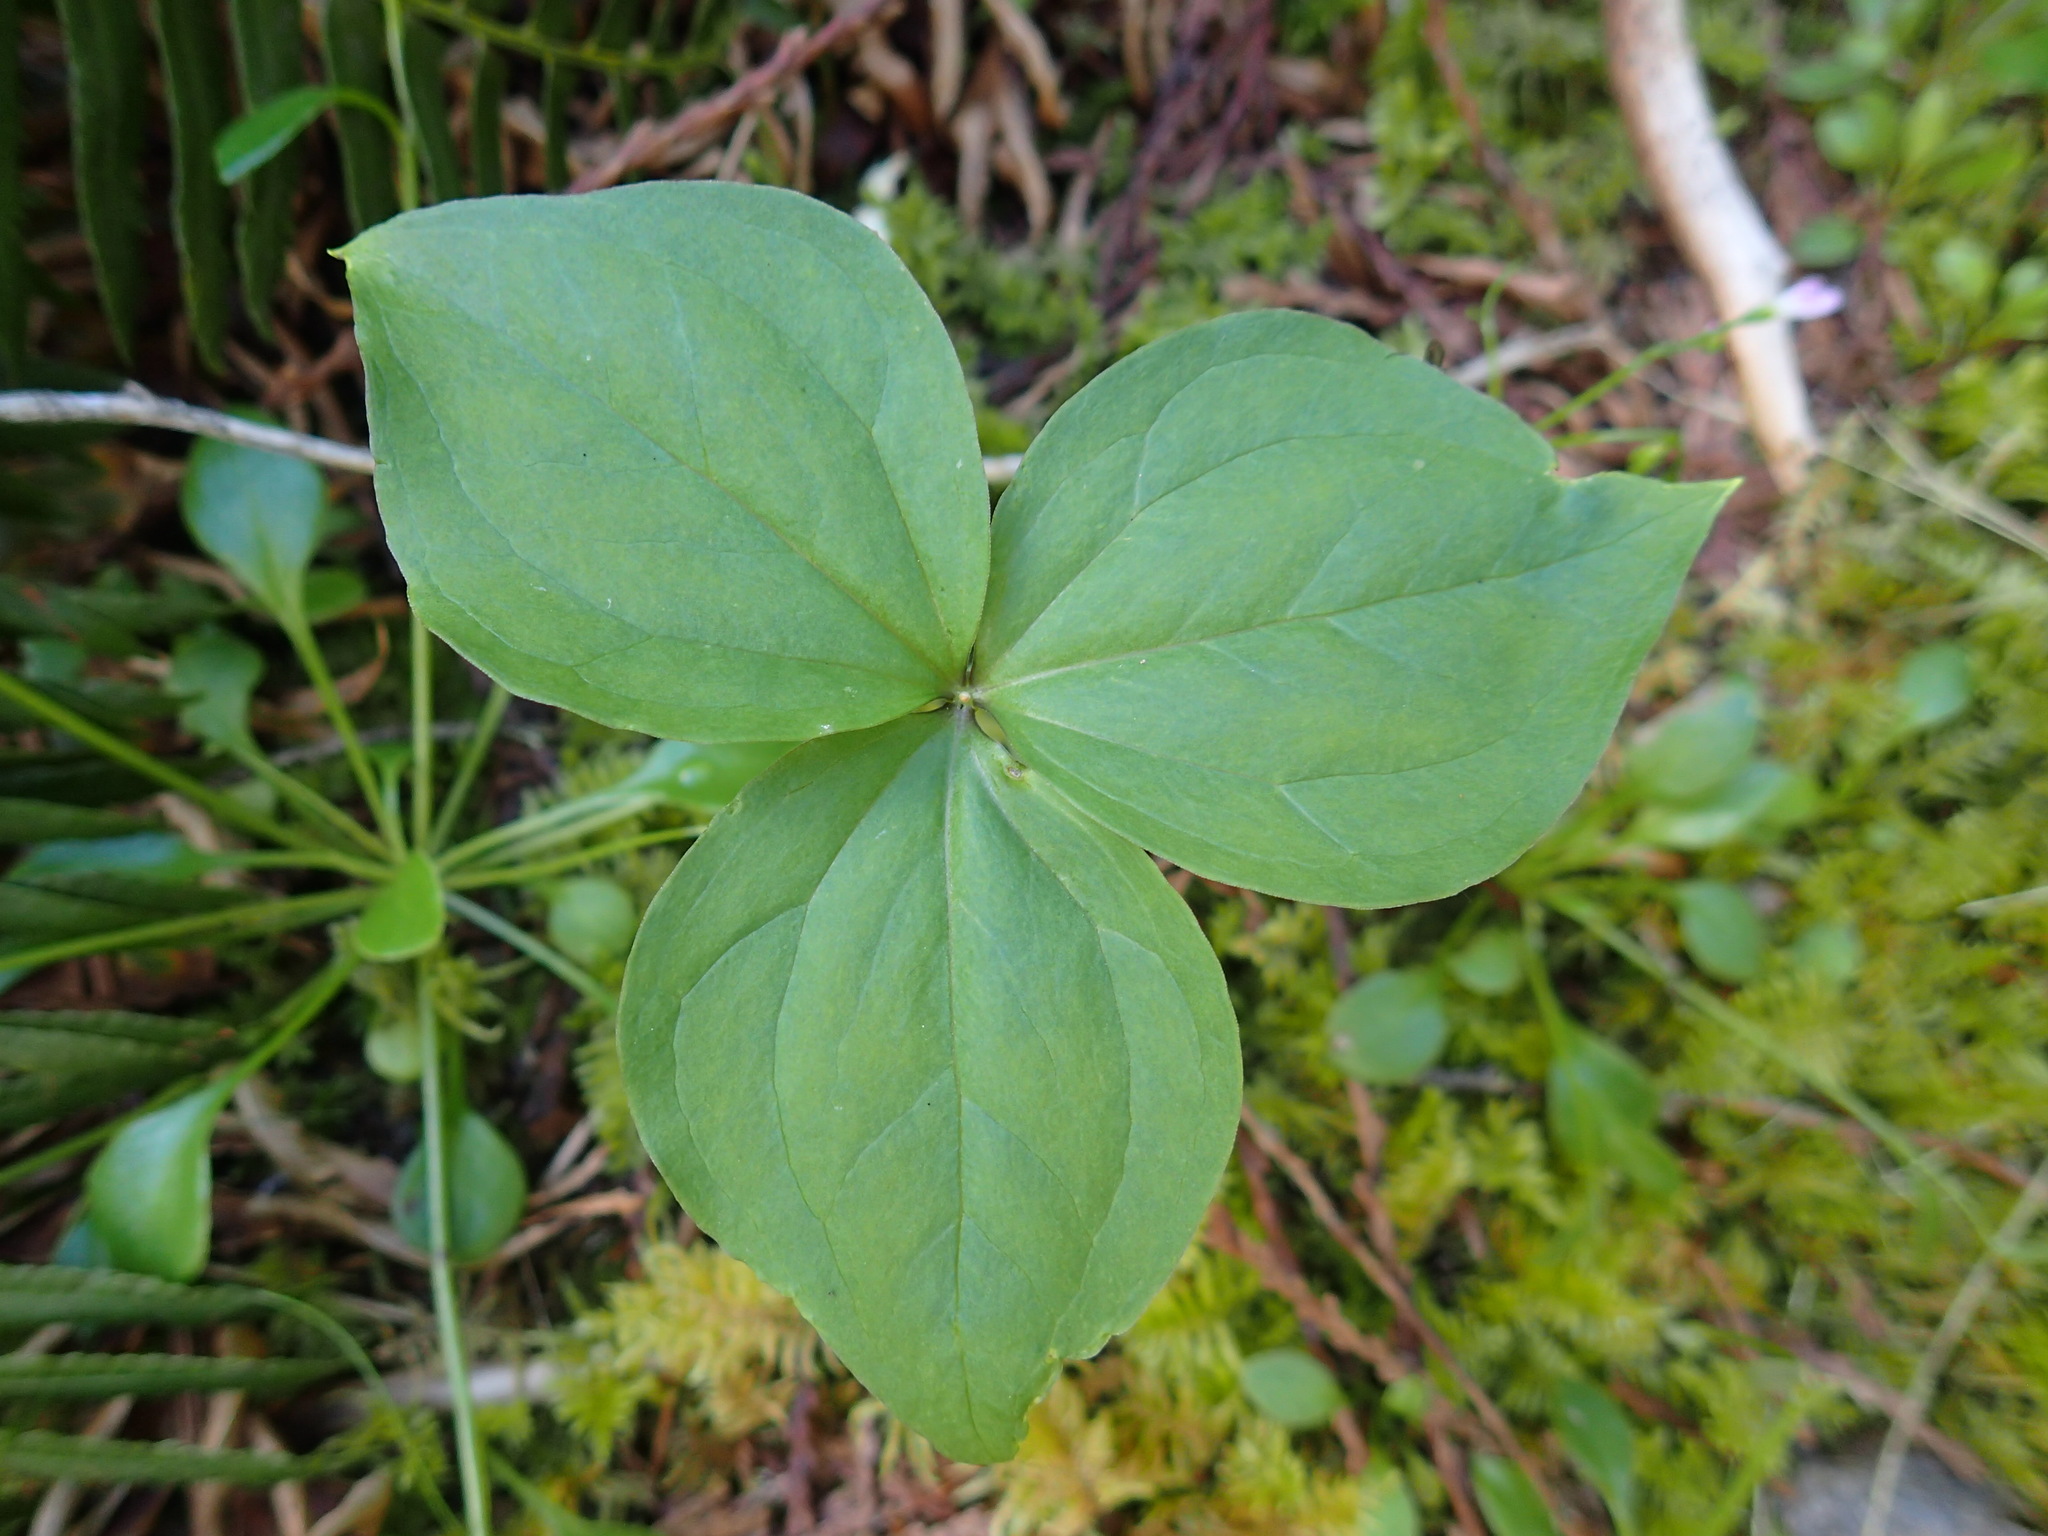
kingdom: Plantae
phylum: Tracheophyta
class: Liliopsida
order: Liliales
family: Melanthiaceae
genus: Trillium
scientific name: Trillium ovatum
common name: Pacific trillium
